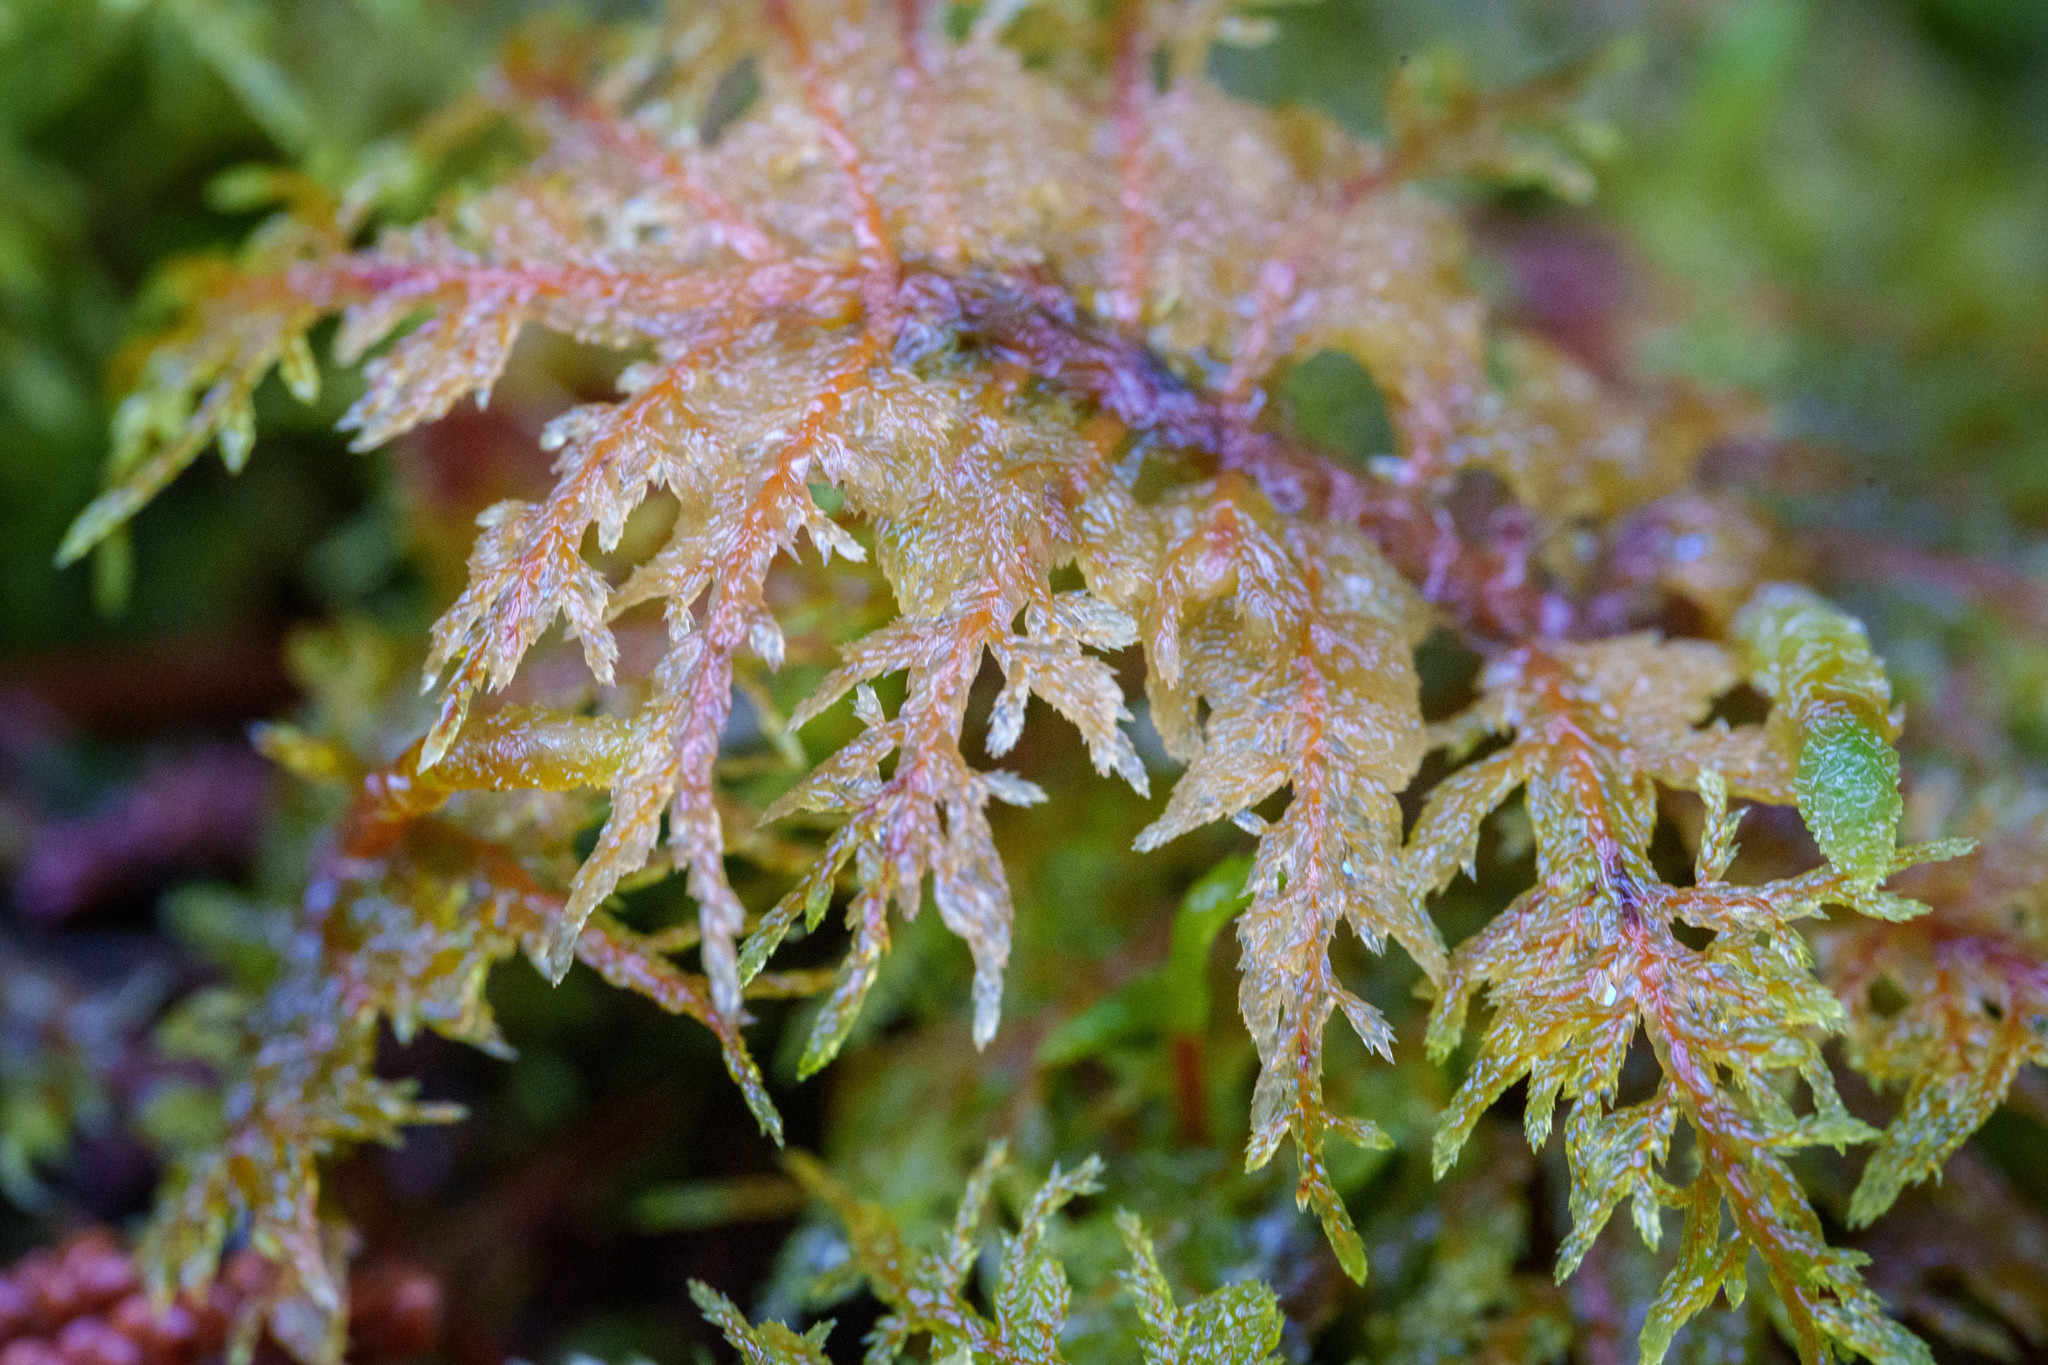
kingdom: Plantae
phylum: Bryophyta
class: Bryopsida
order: Hypnales
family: Hylocomiaceae
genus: Hylocomium
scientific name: Hylocomium splendens
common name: Stairstep moss
